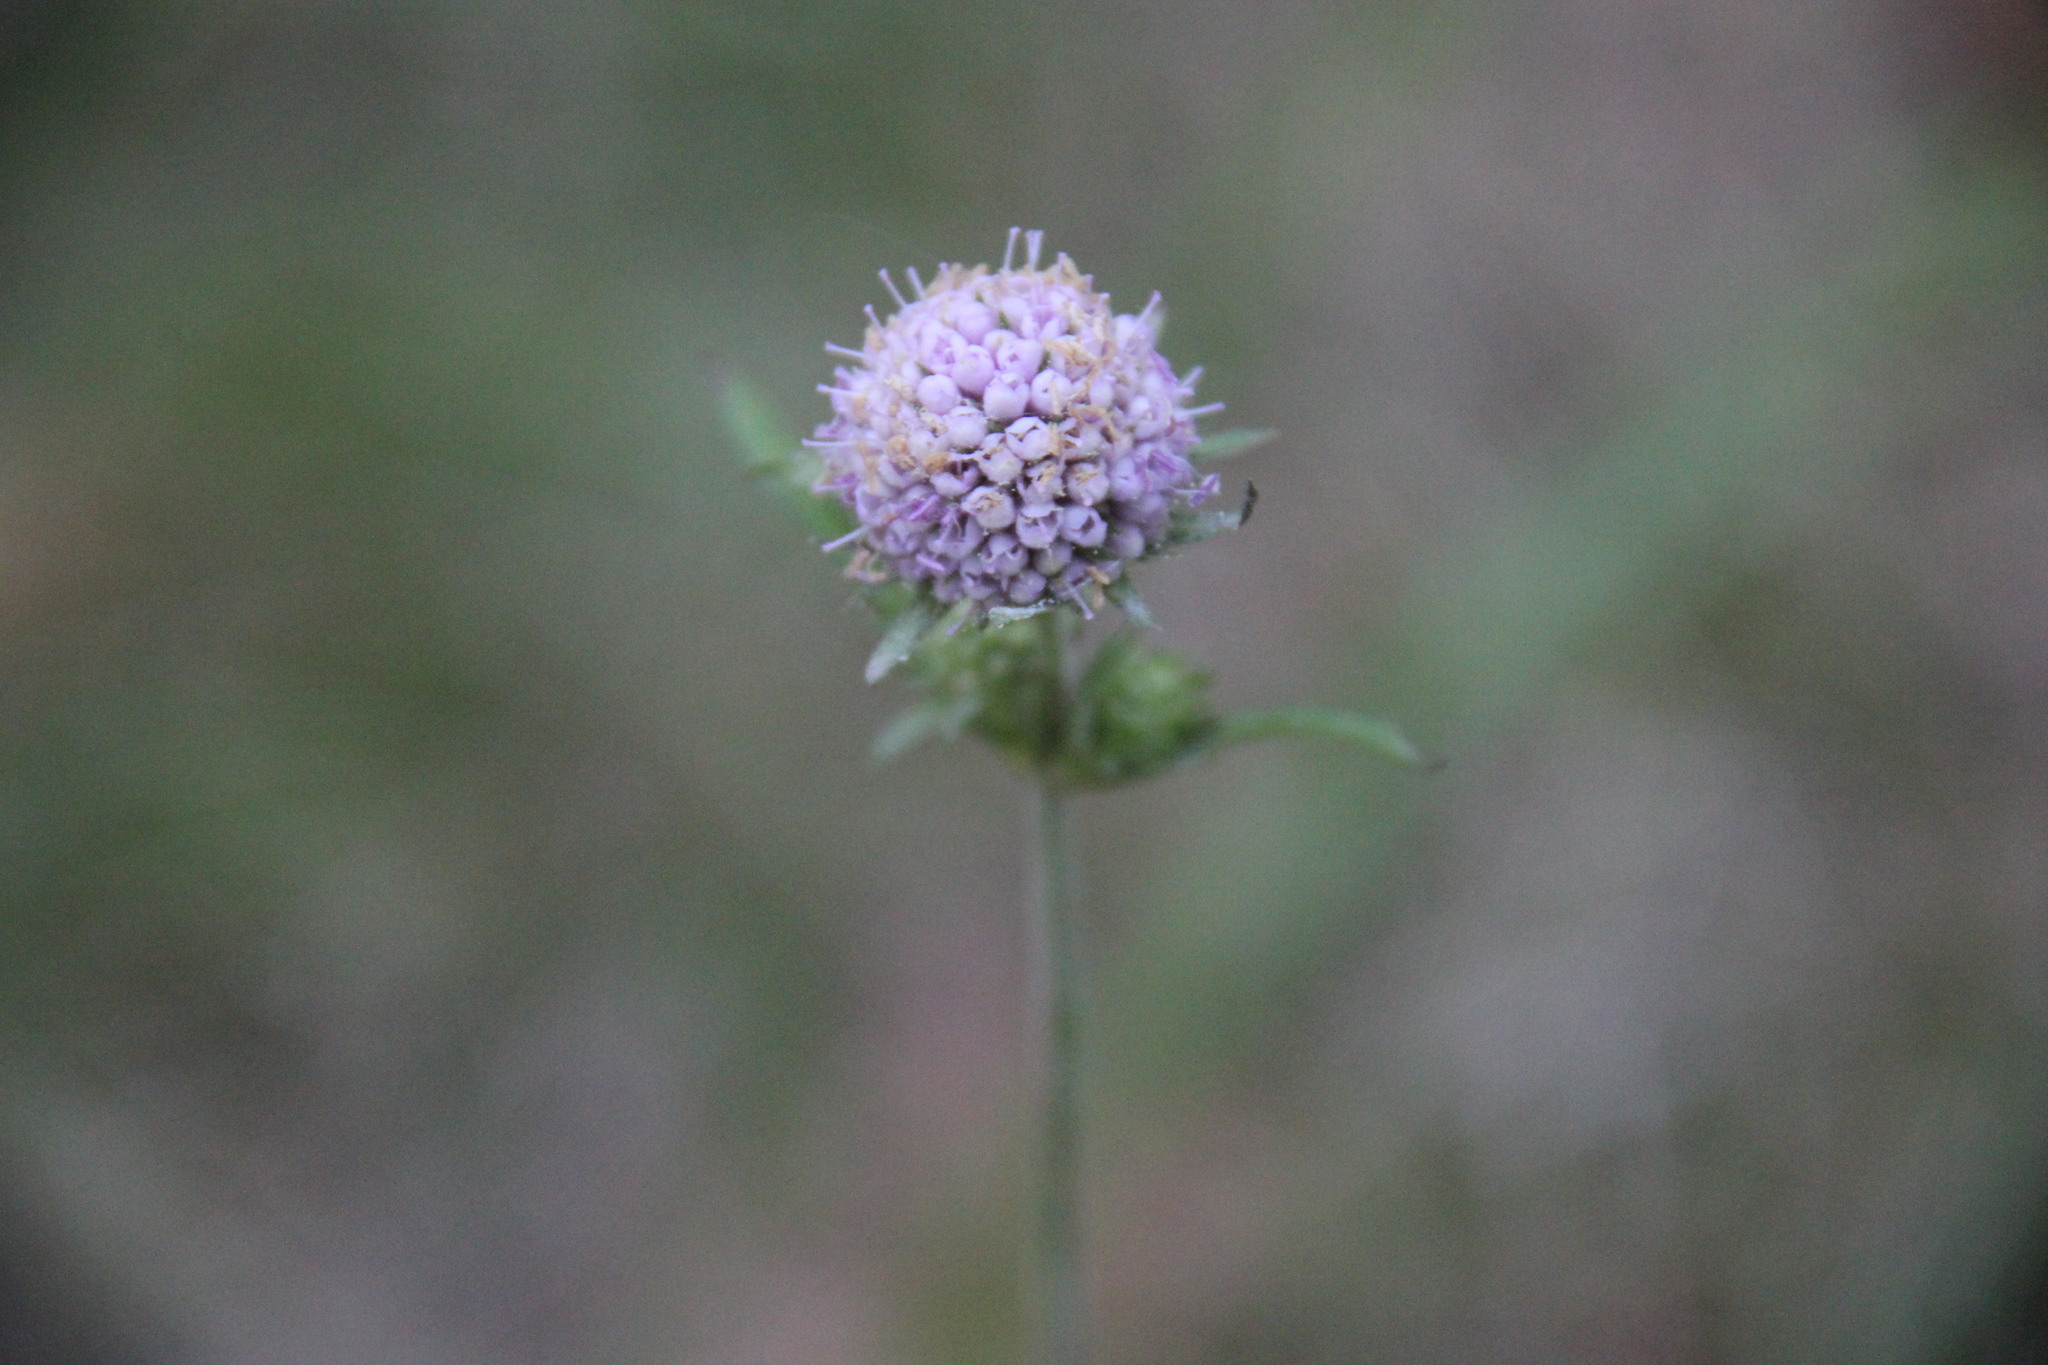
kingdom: Plantae
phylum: Tracheophyta
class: Magnoliopsida
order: Dipsacales
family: Caprifoliaceae
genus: Succisa
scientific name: Succisa pratensis
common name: Devil's-bit
